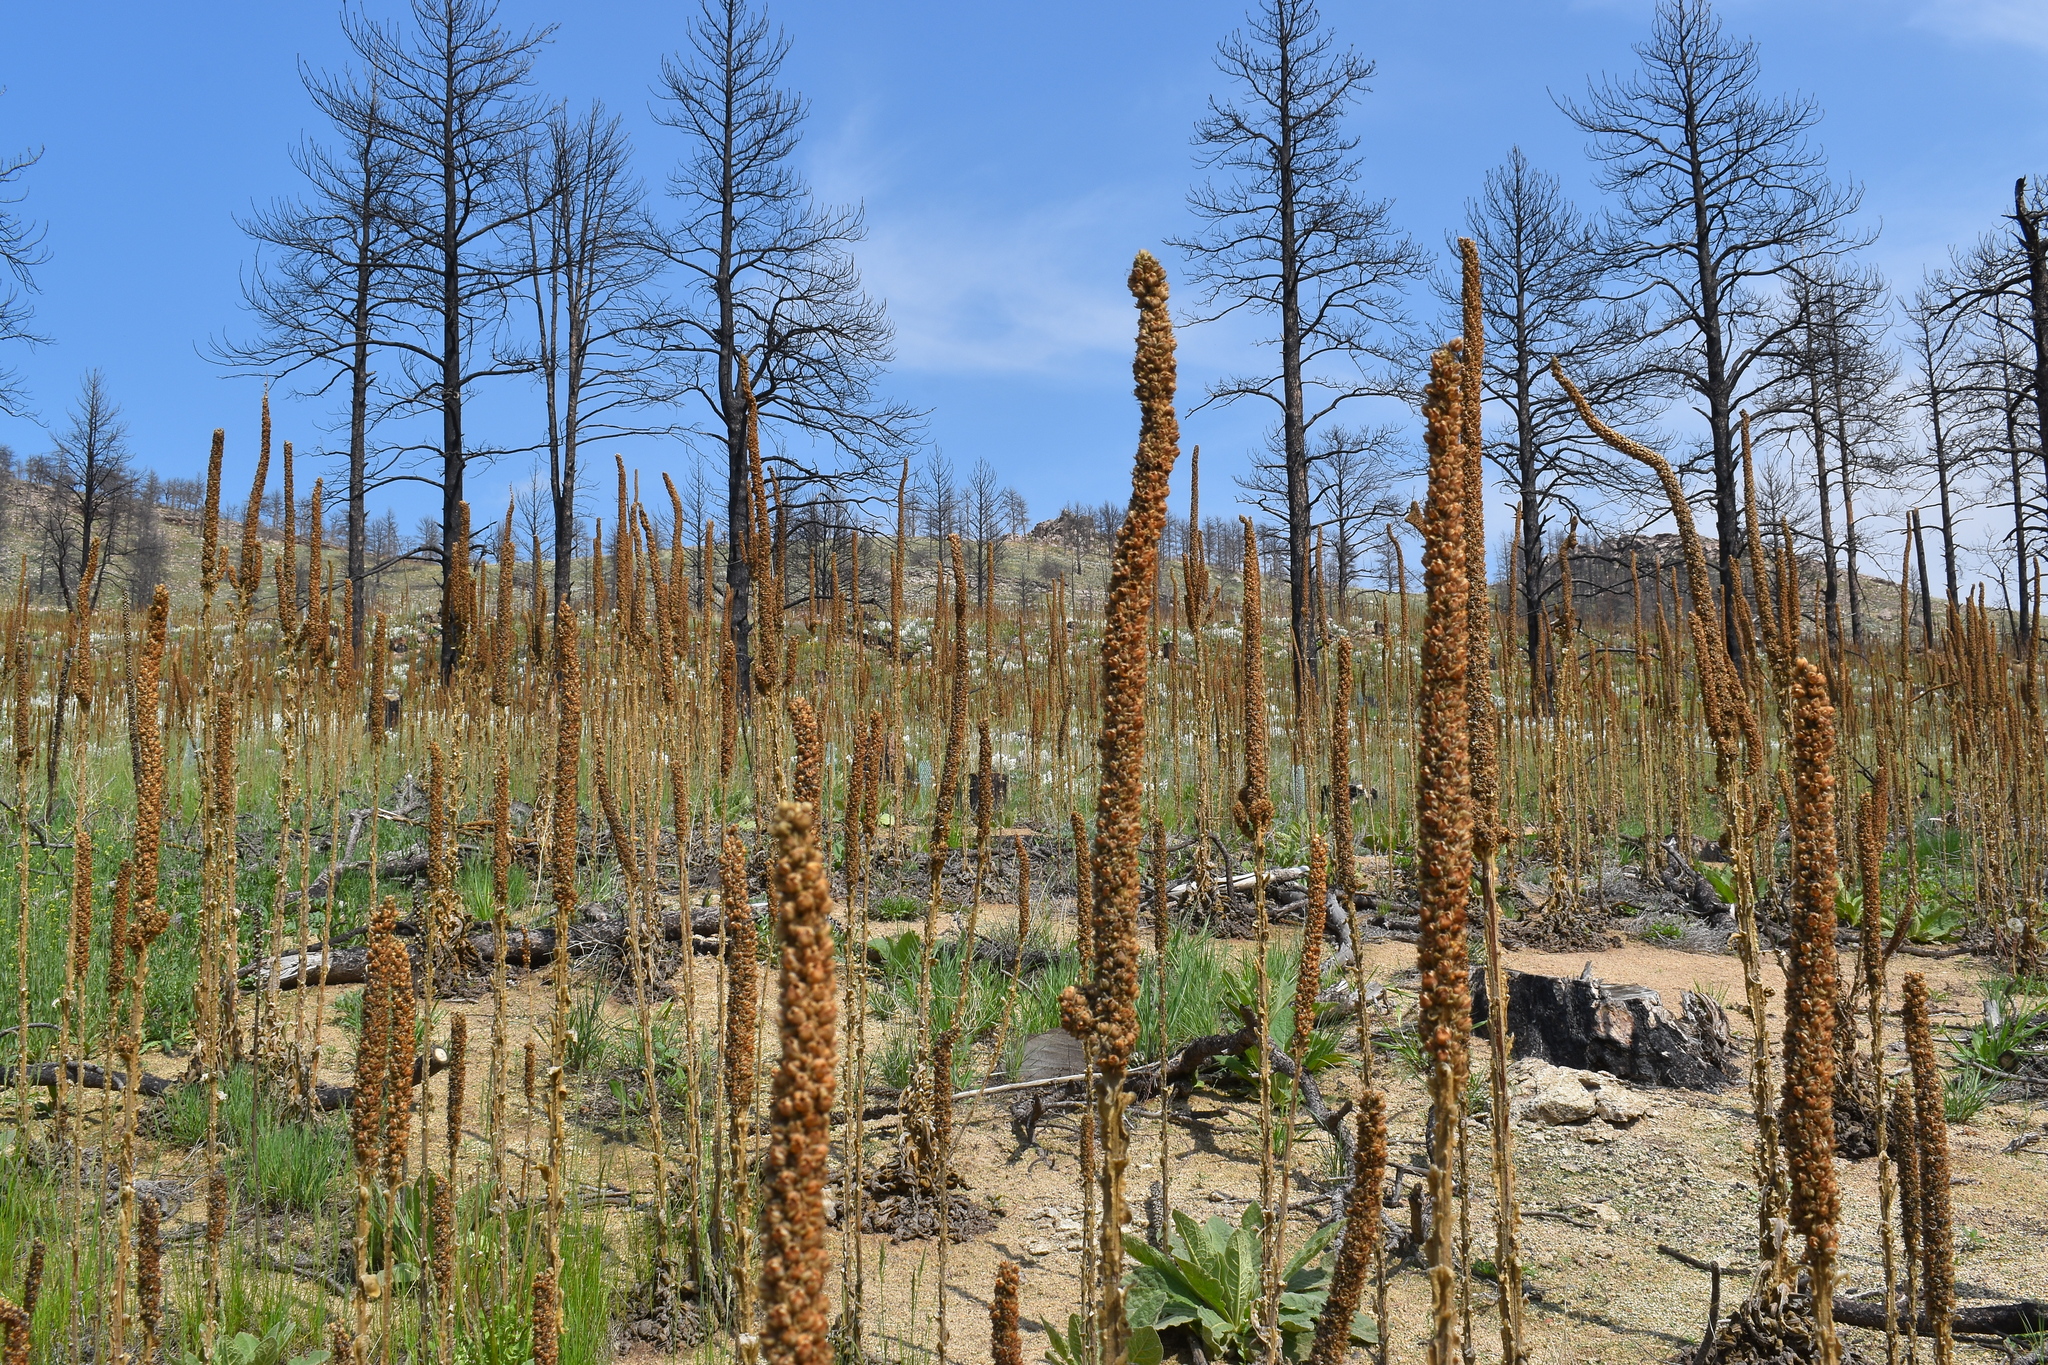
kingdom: Plantae
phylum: Tracheophyta
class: Magnoliopsida
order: Fabales
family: Fabaceae
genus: Oxytropis
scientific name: Oxytropis sericea
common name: Silky locoweed
